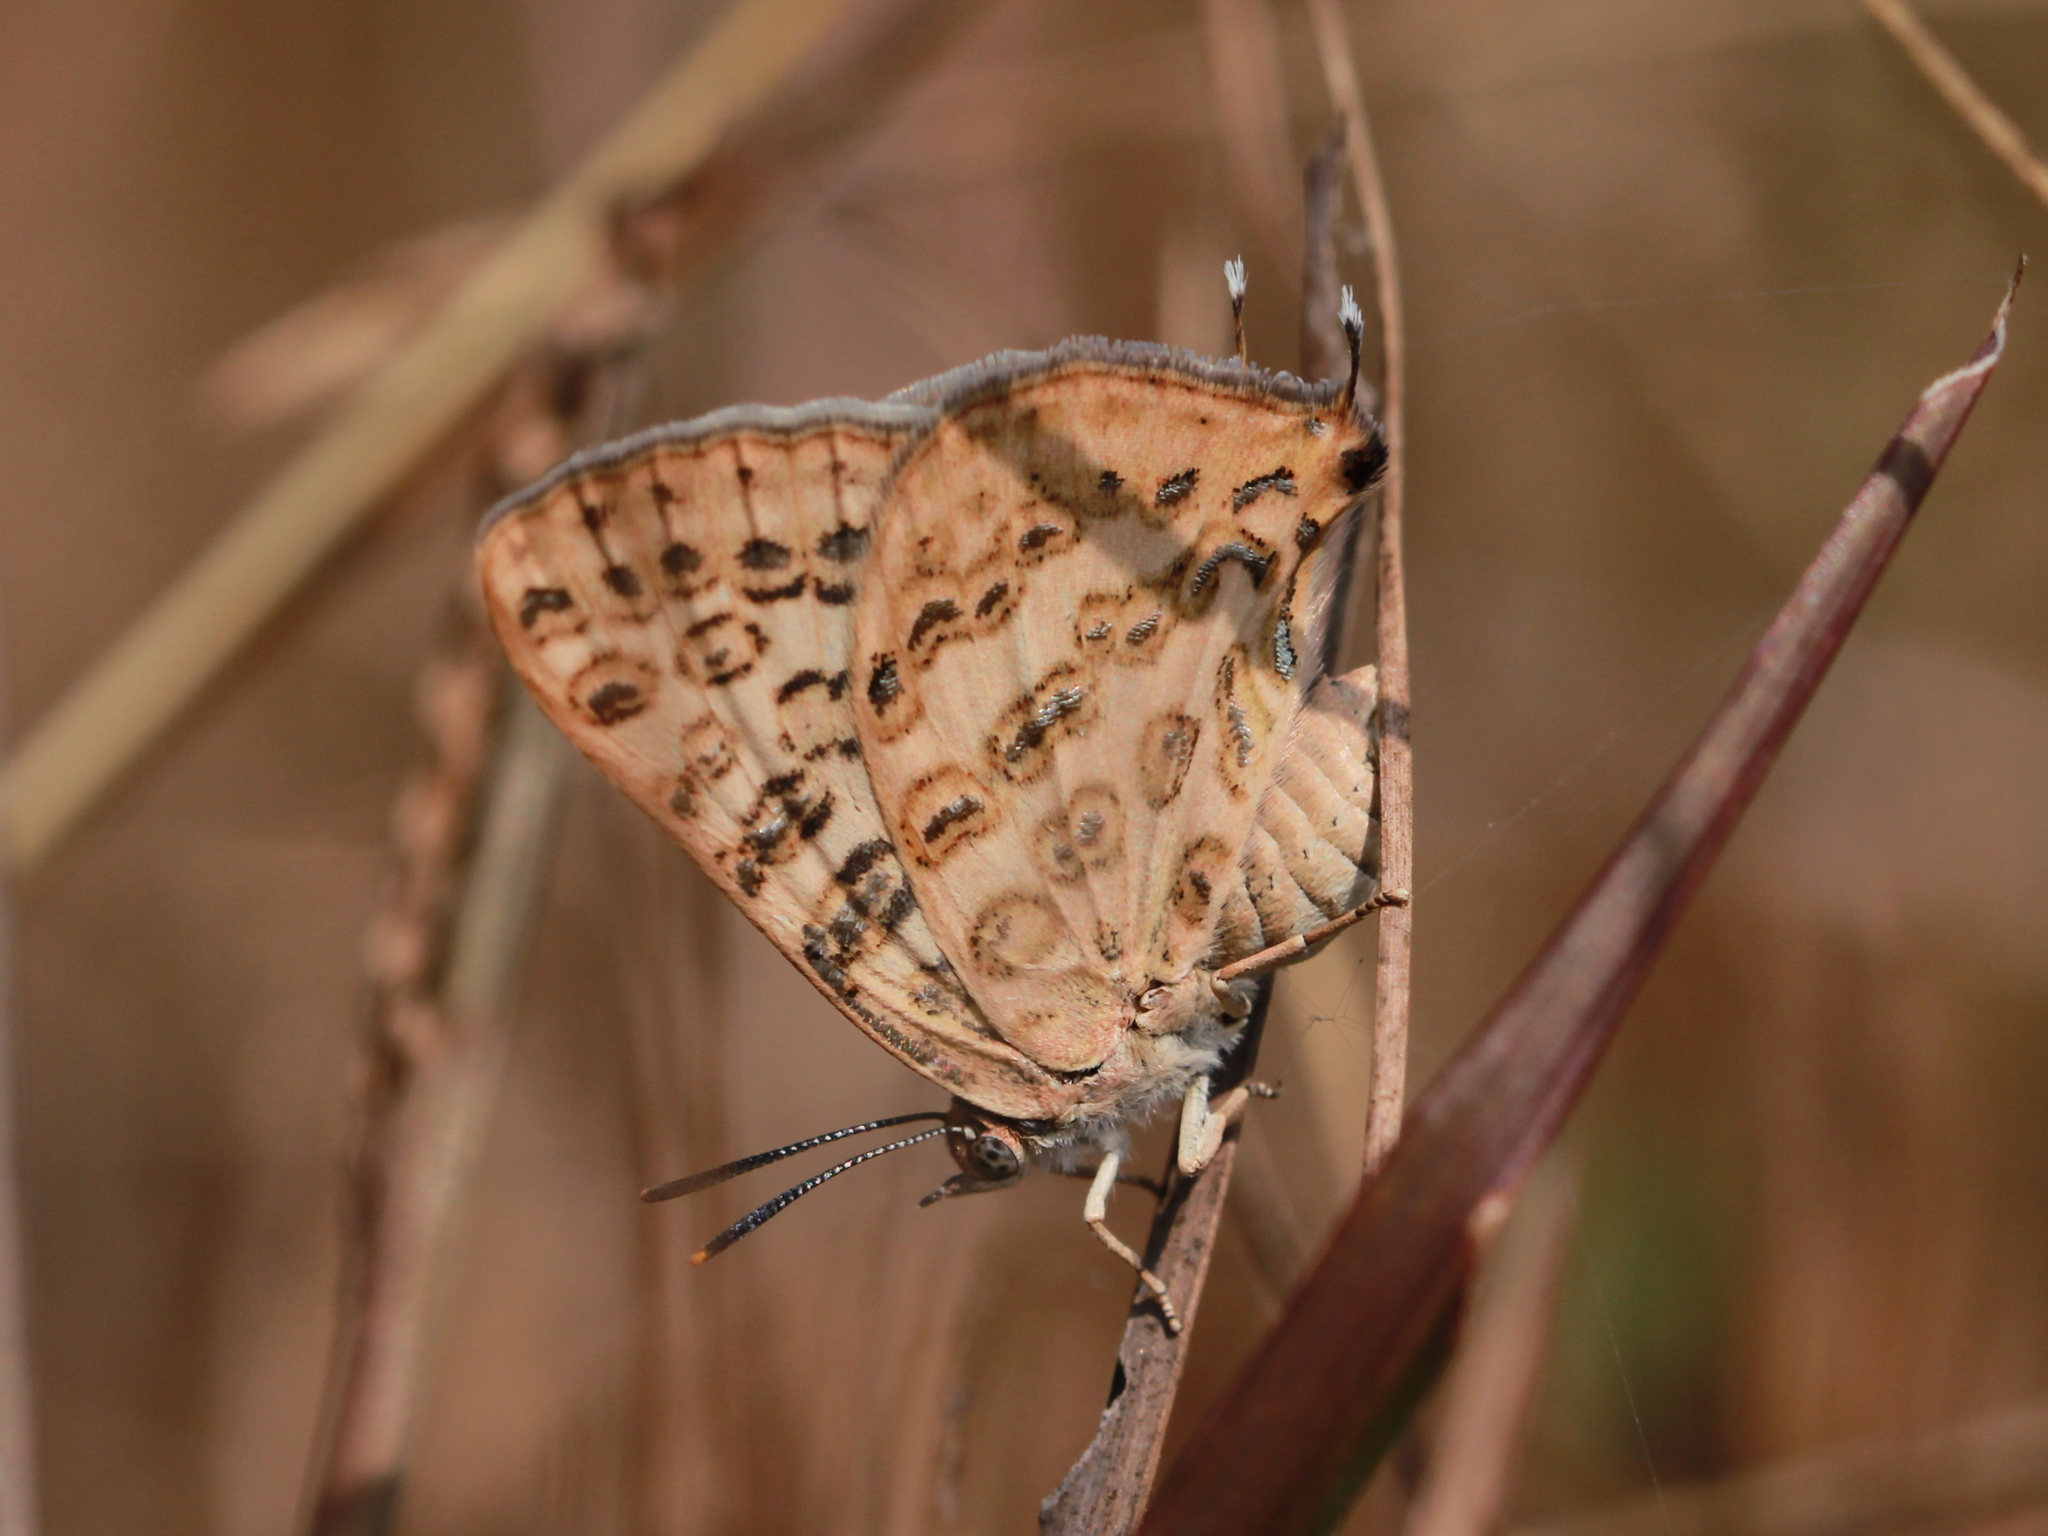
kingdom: Animalia
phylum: Arthropoda
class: Insecta
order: Lepidoptera
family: Lycaenidae
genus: Aphnaeus
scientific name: Aphnaeus lilacinus
